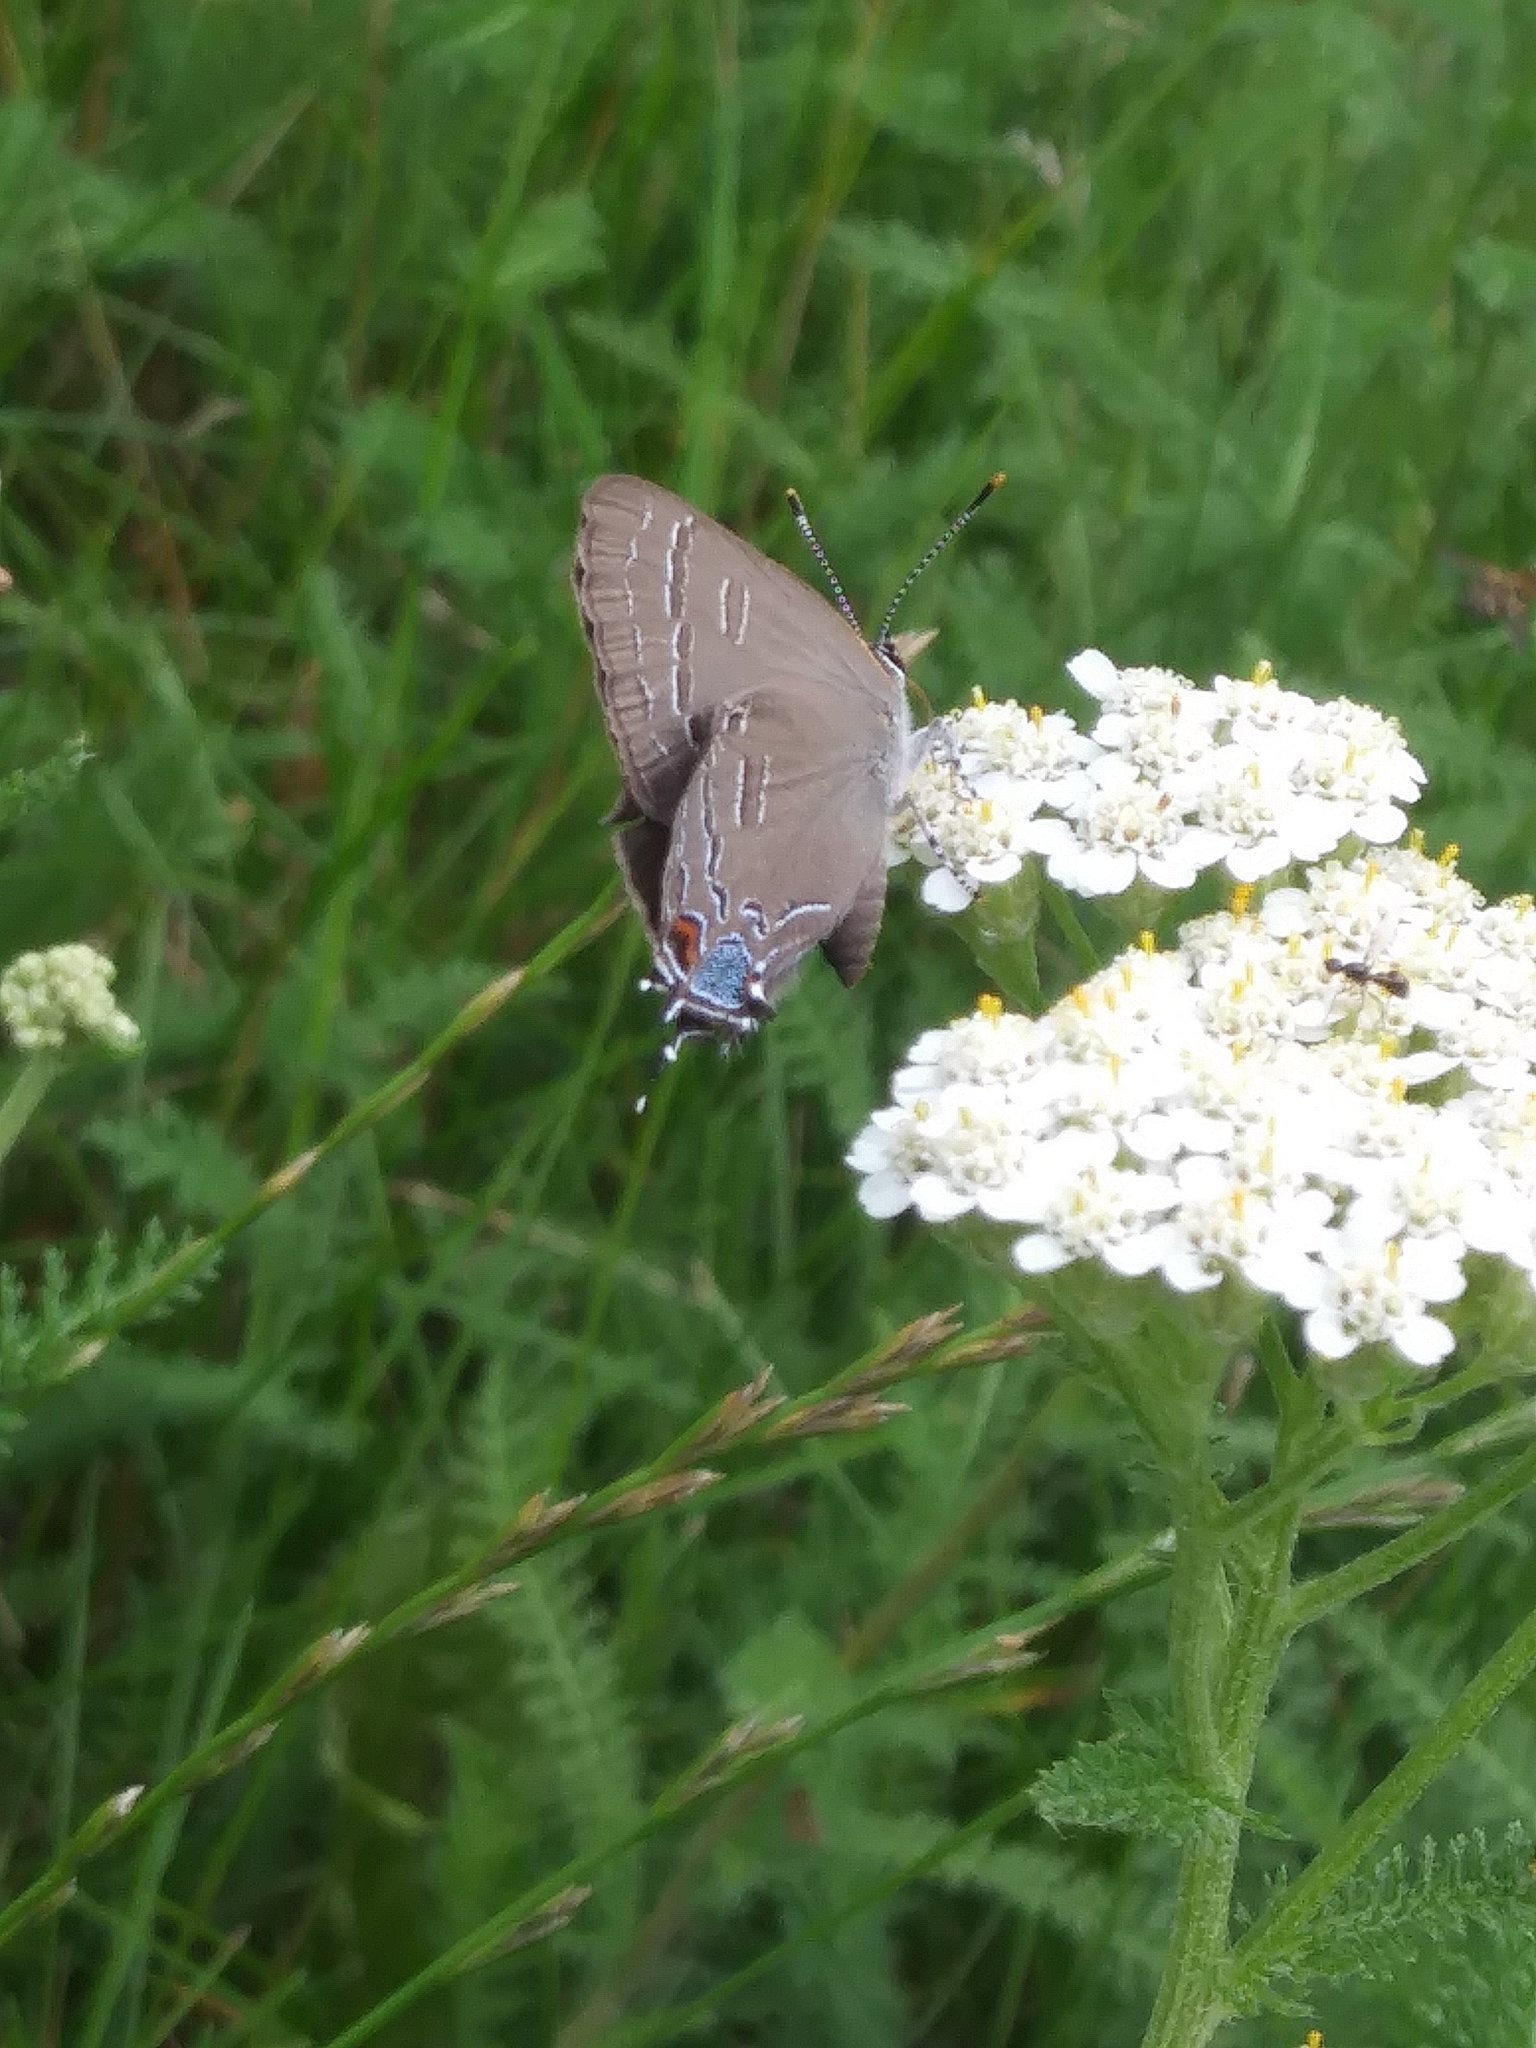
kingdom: Animalia
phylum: Arthropoda
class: Insecta
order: Lepidoptera
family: Lycaenidae
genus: Satyrium
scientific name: Satyrium calanus
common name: Banded hairstreak
